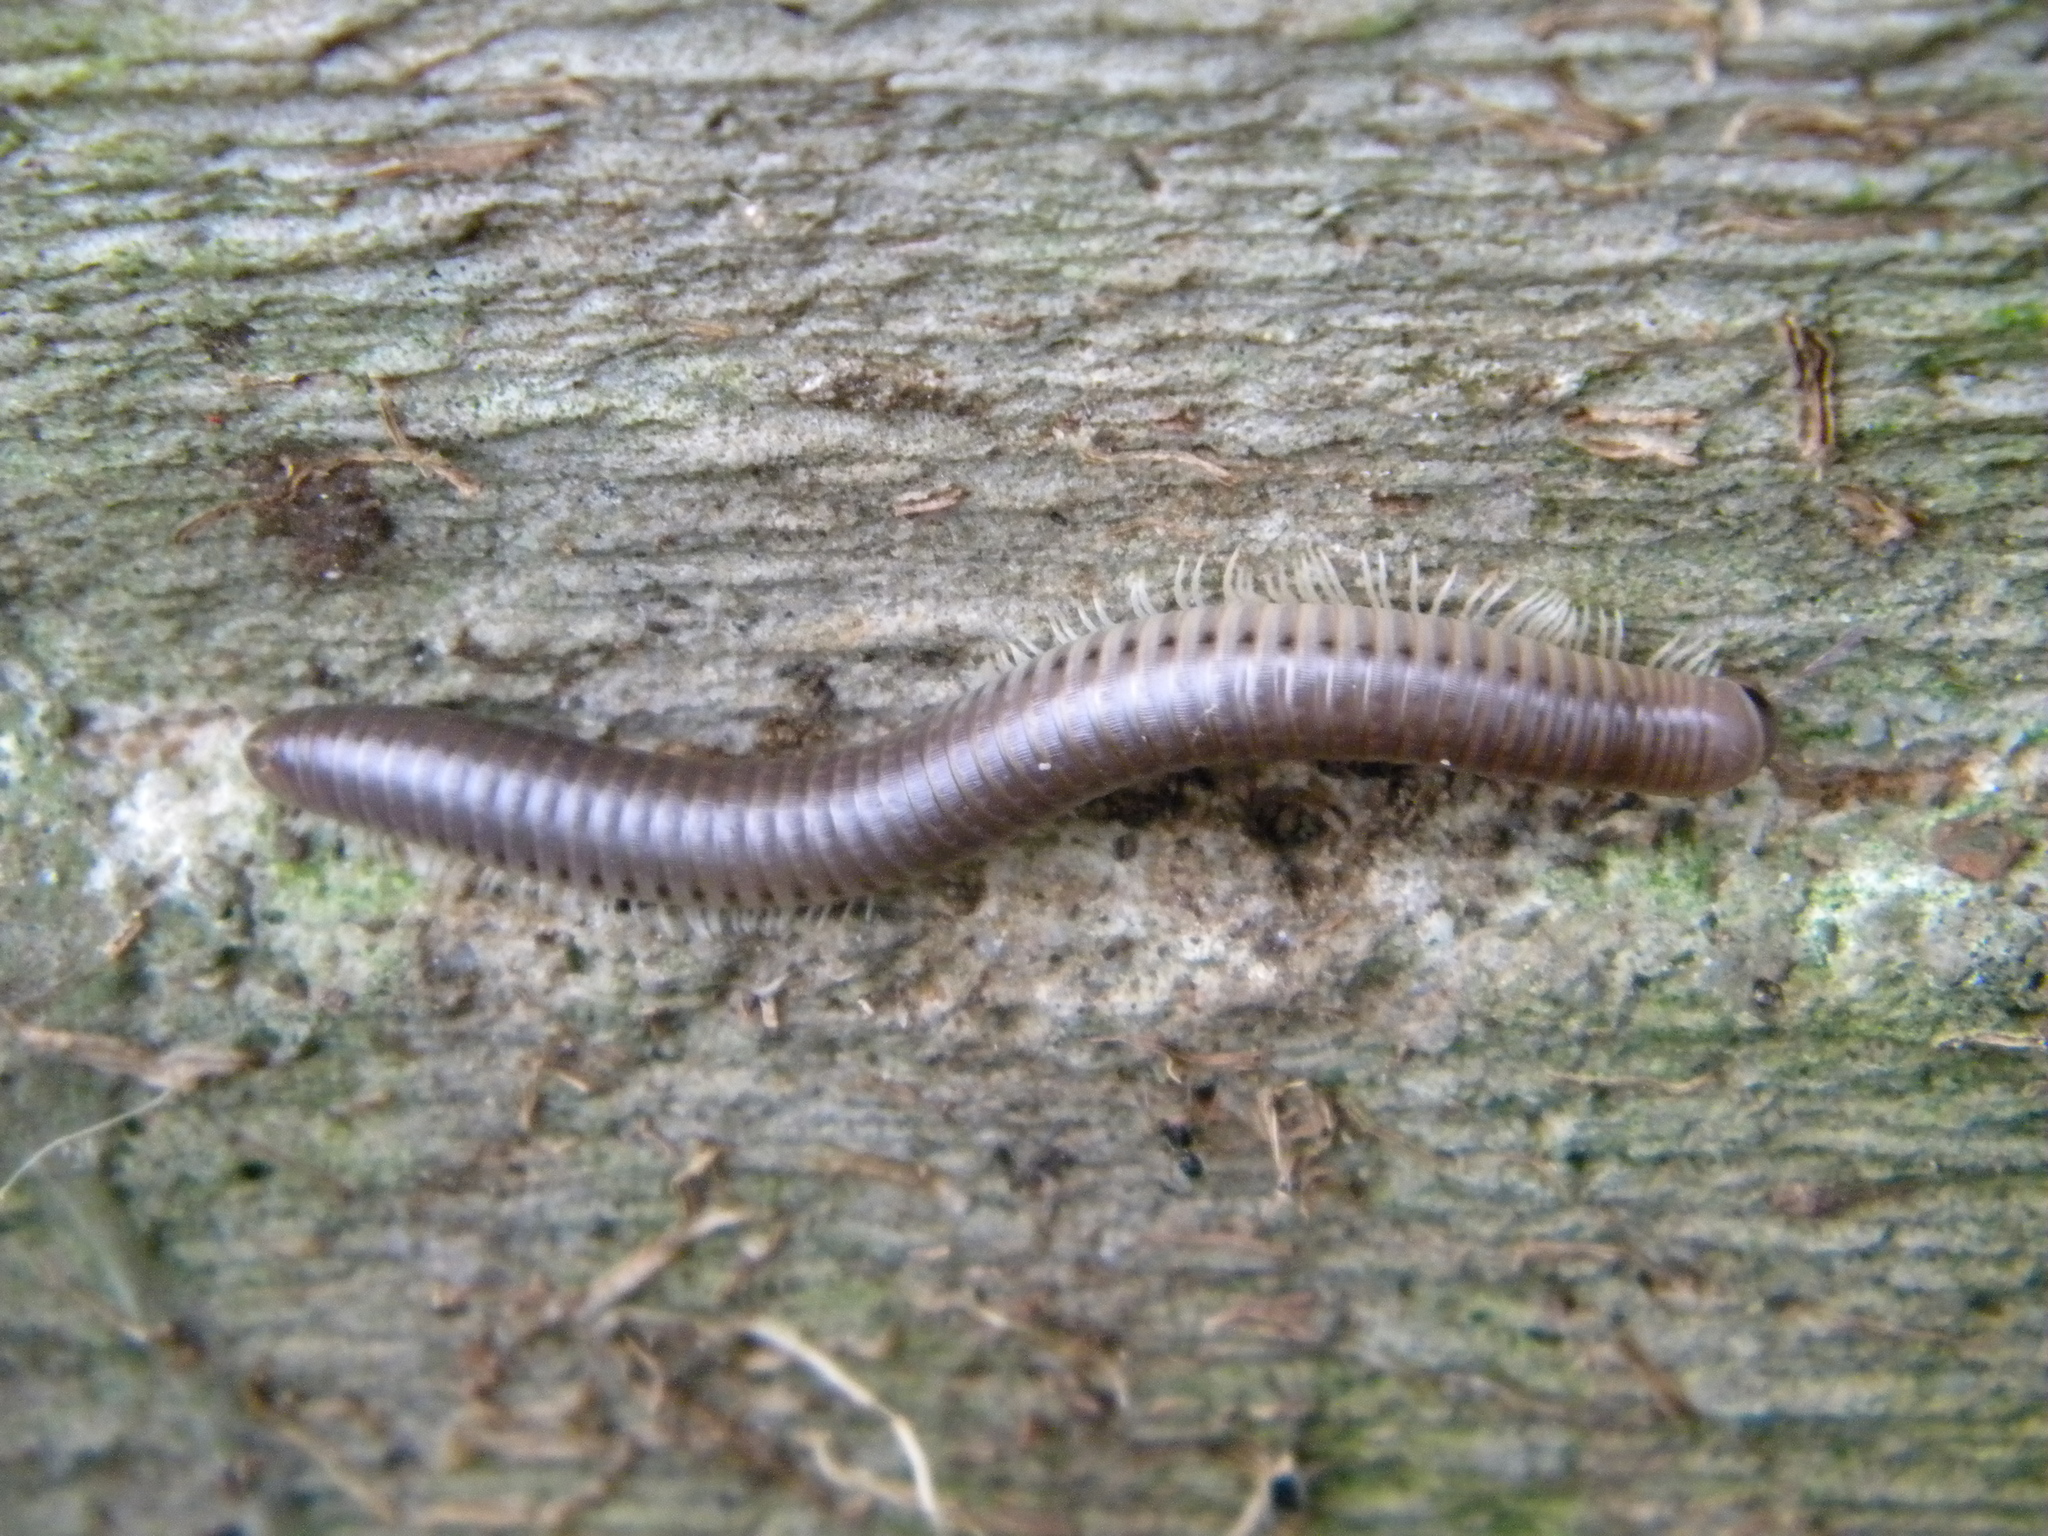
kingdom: Animalia
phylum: Arthropoda
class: Diplopoda
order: Julida
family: Julidae
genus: Pachyiulus
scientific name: Pachyiulus flavipes
